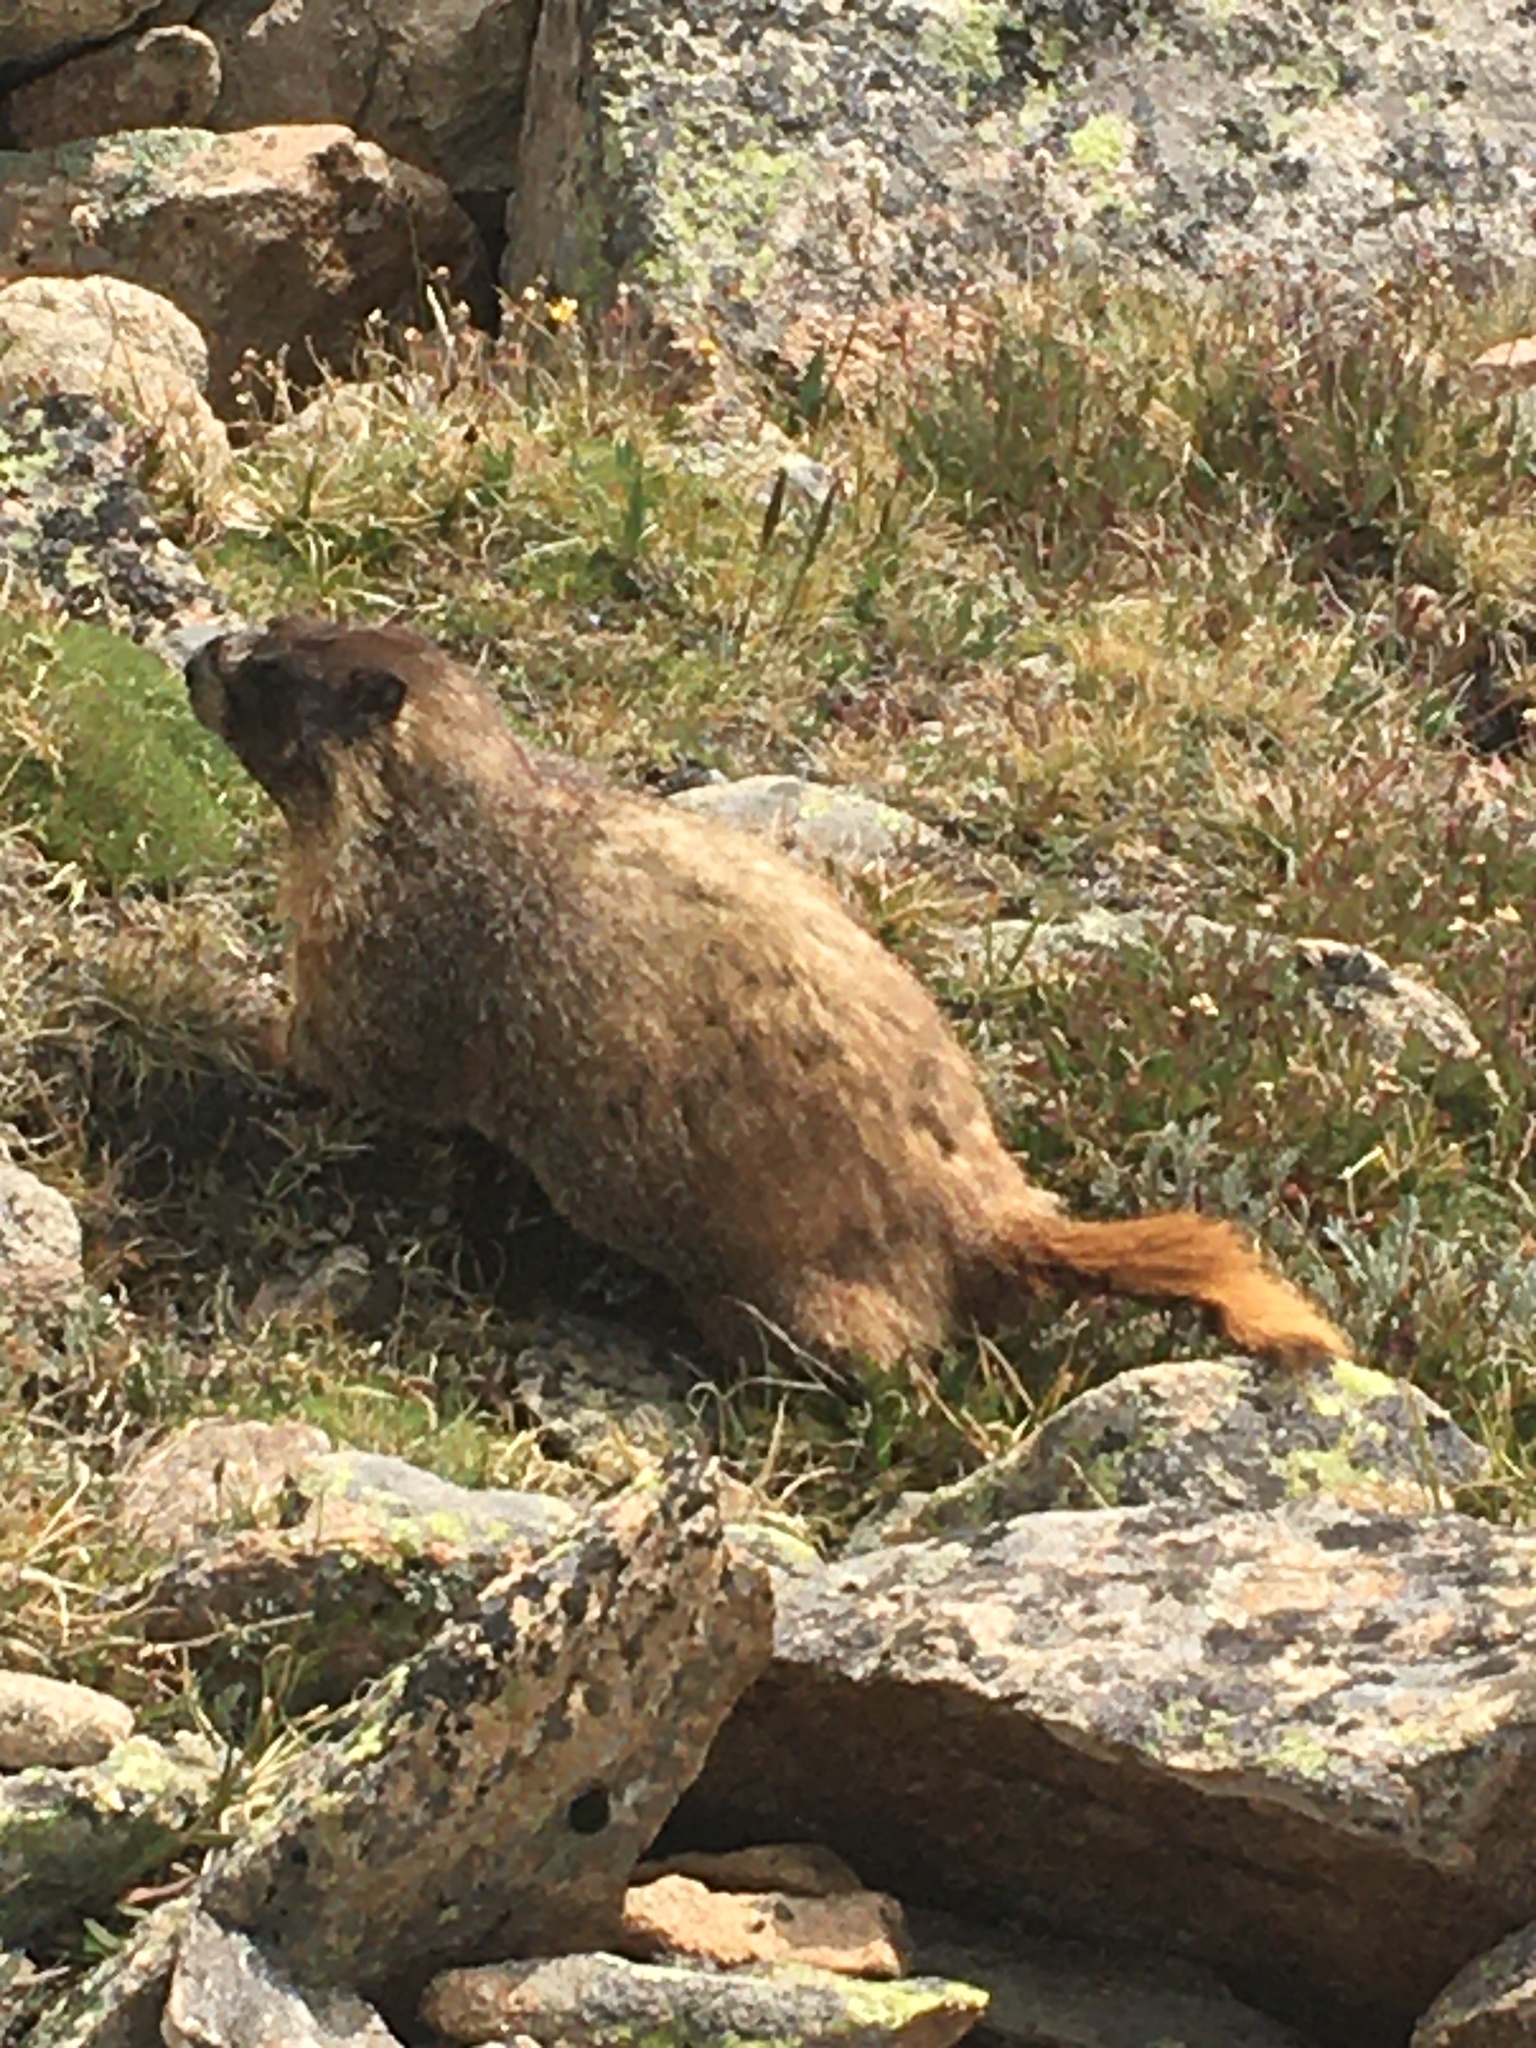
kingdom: Animalia
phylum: Chordata
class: Mammalia
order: Rodentia
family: Sciuridae
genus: Marmota
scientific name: Marmota flaviventris
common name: Yellow-bellied marmot
